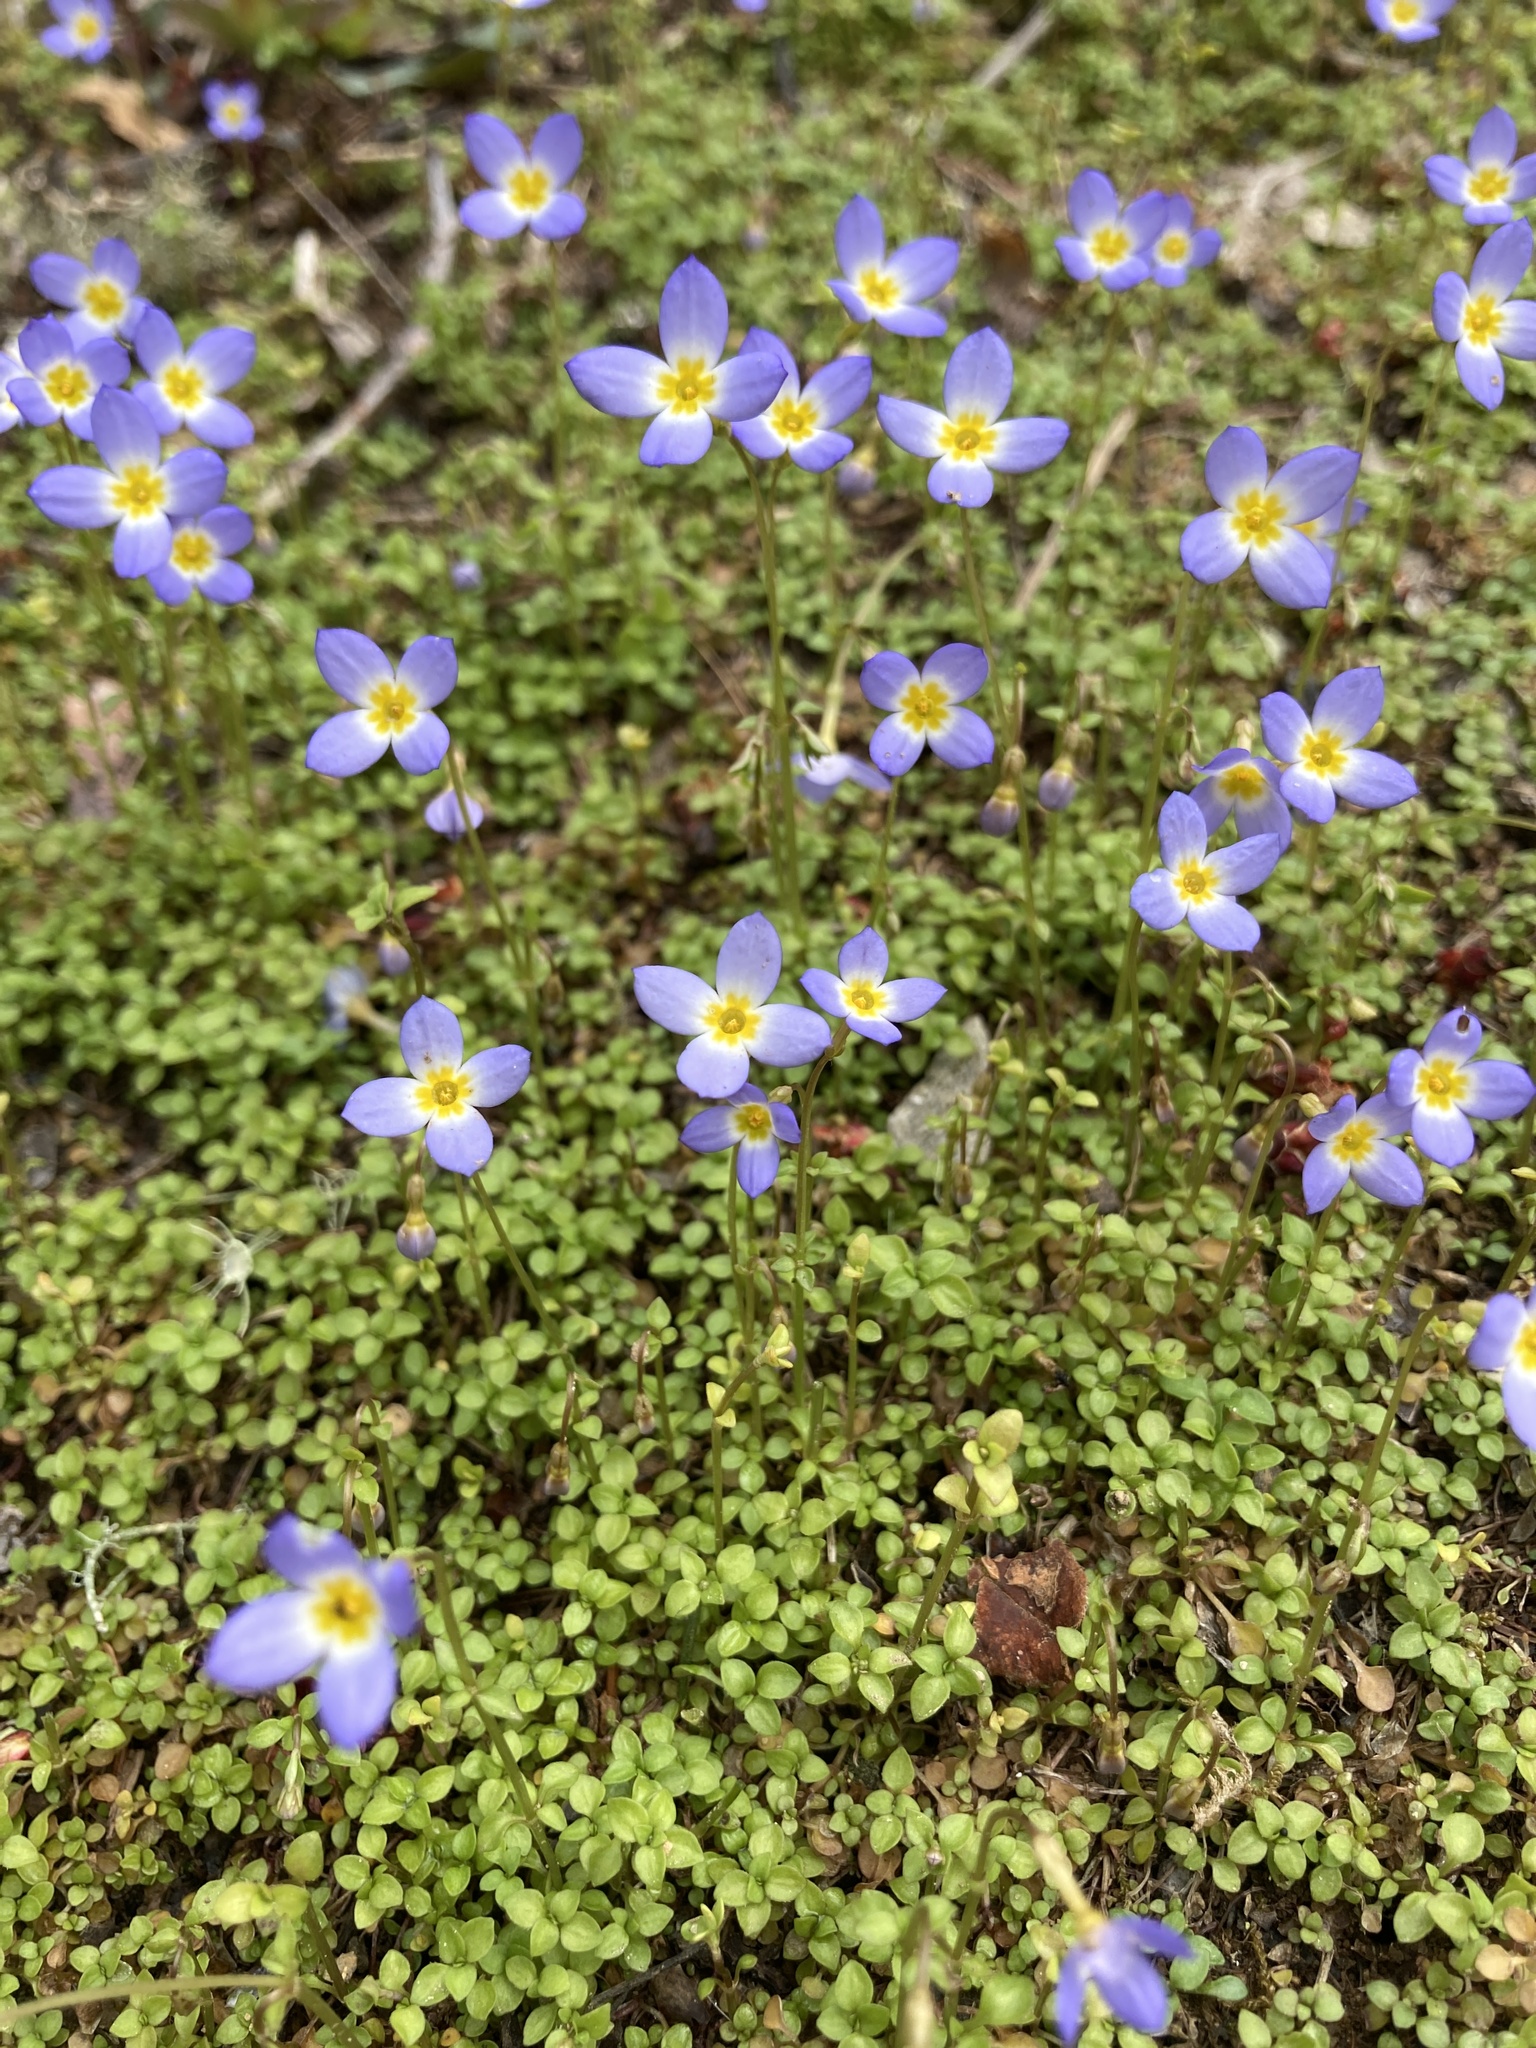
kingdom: Plantae
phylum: Tracheophyta
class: Magnoliopsida
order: Gentianales
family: Rubiaceae
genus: Houstonia
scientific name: Houstonia serpyllifolia
